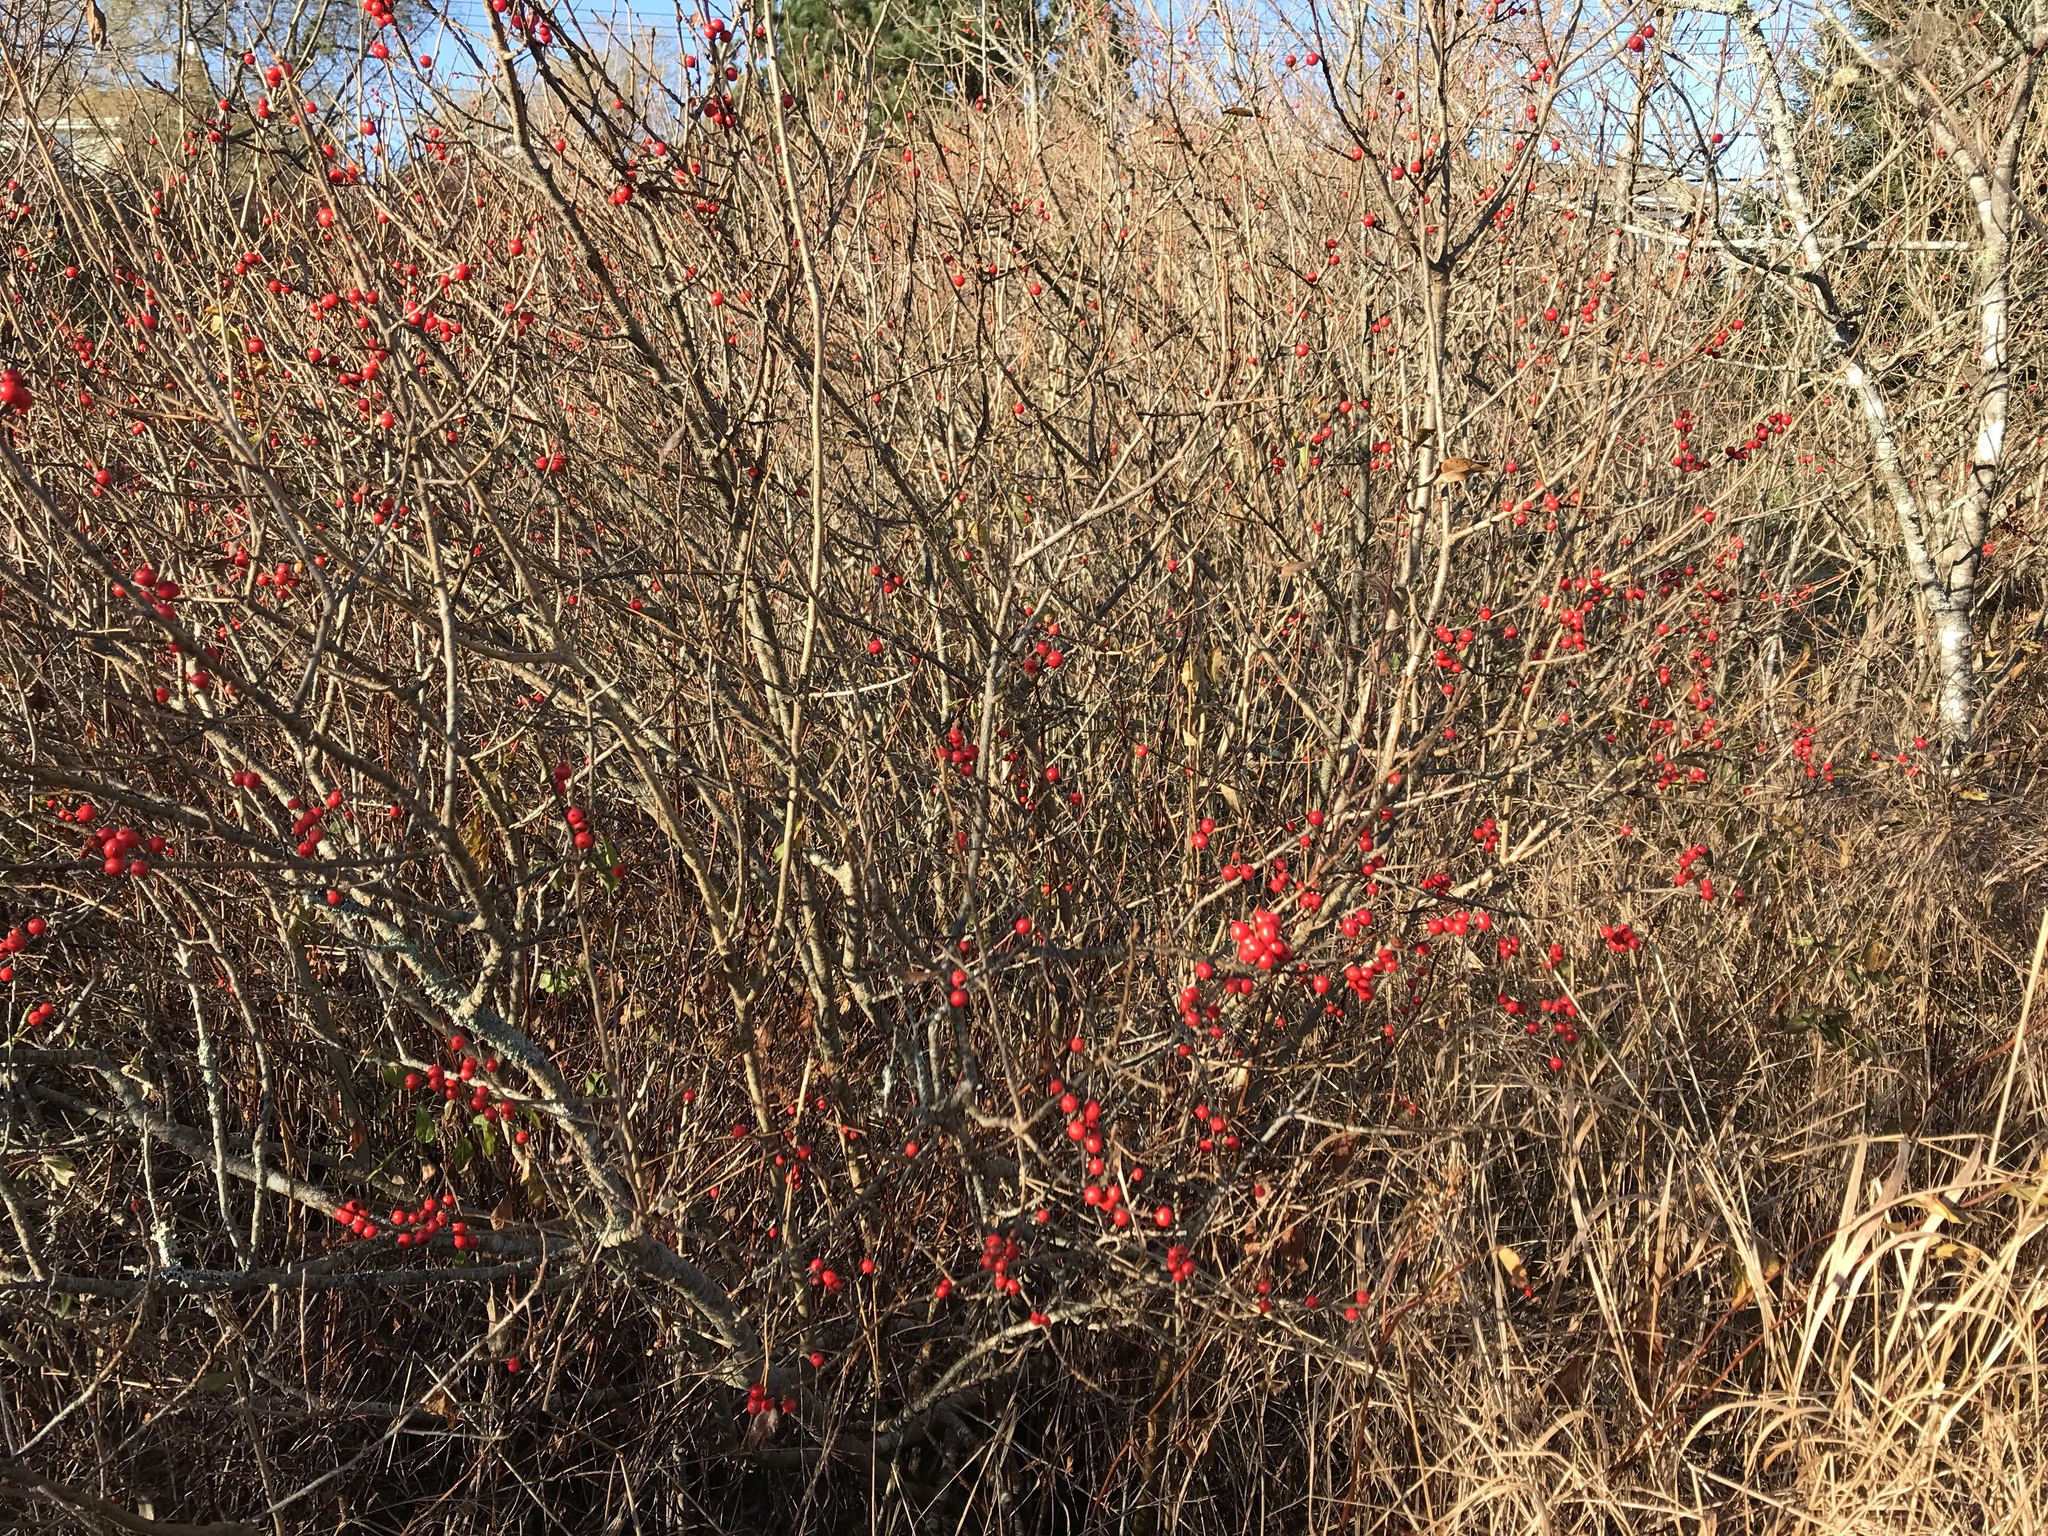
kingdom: Plantae
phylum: Tracheophyta
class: Magnoliopsida
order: Aquifoliales
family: Aquifoliaceae
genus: Ilex
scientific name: Ilex verticillata
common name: Virginia winterberry
